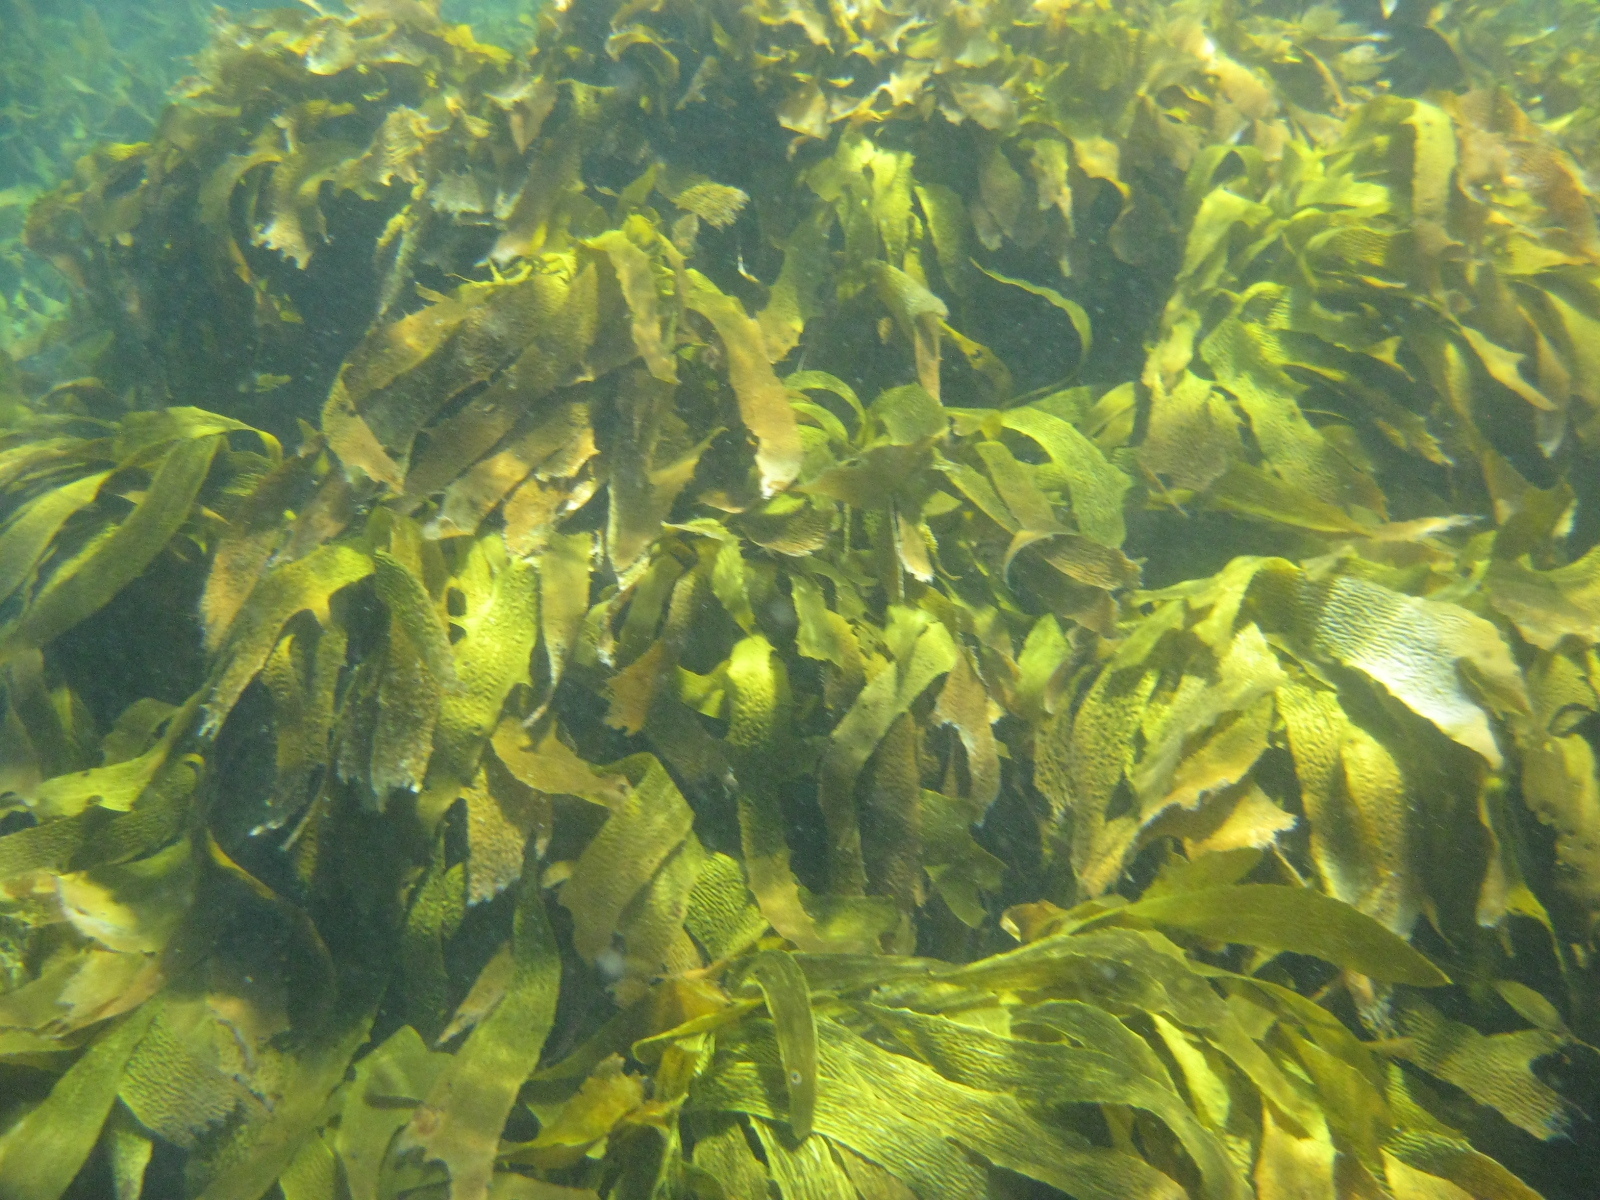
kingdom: Chromista
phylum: Ochrophyta
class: Phaeophyceae
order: Laminariales
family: Lessoniaceae
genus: Ecklonia
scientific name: Ecklonia radiata
